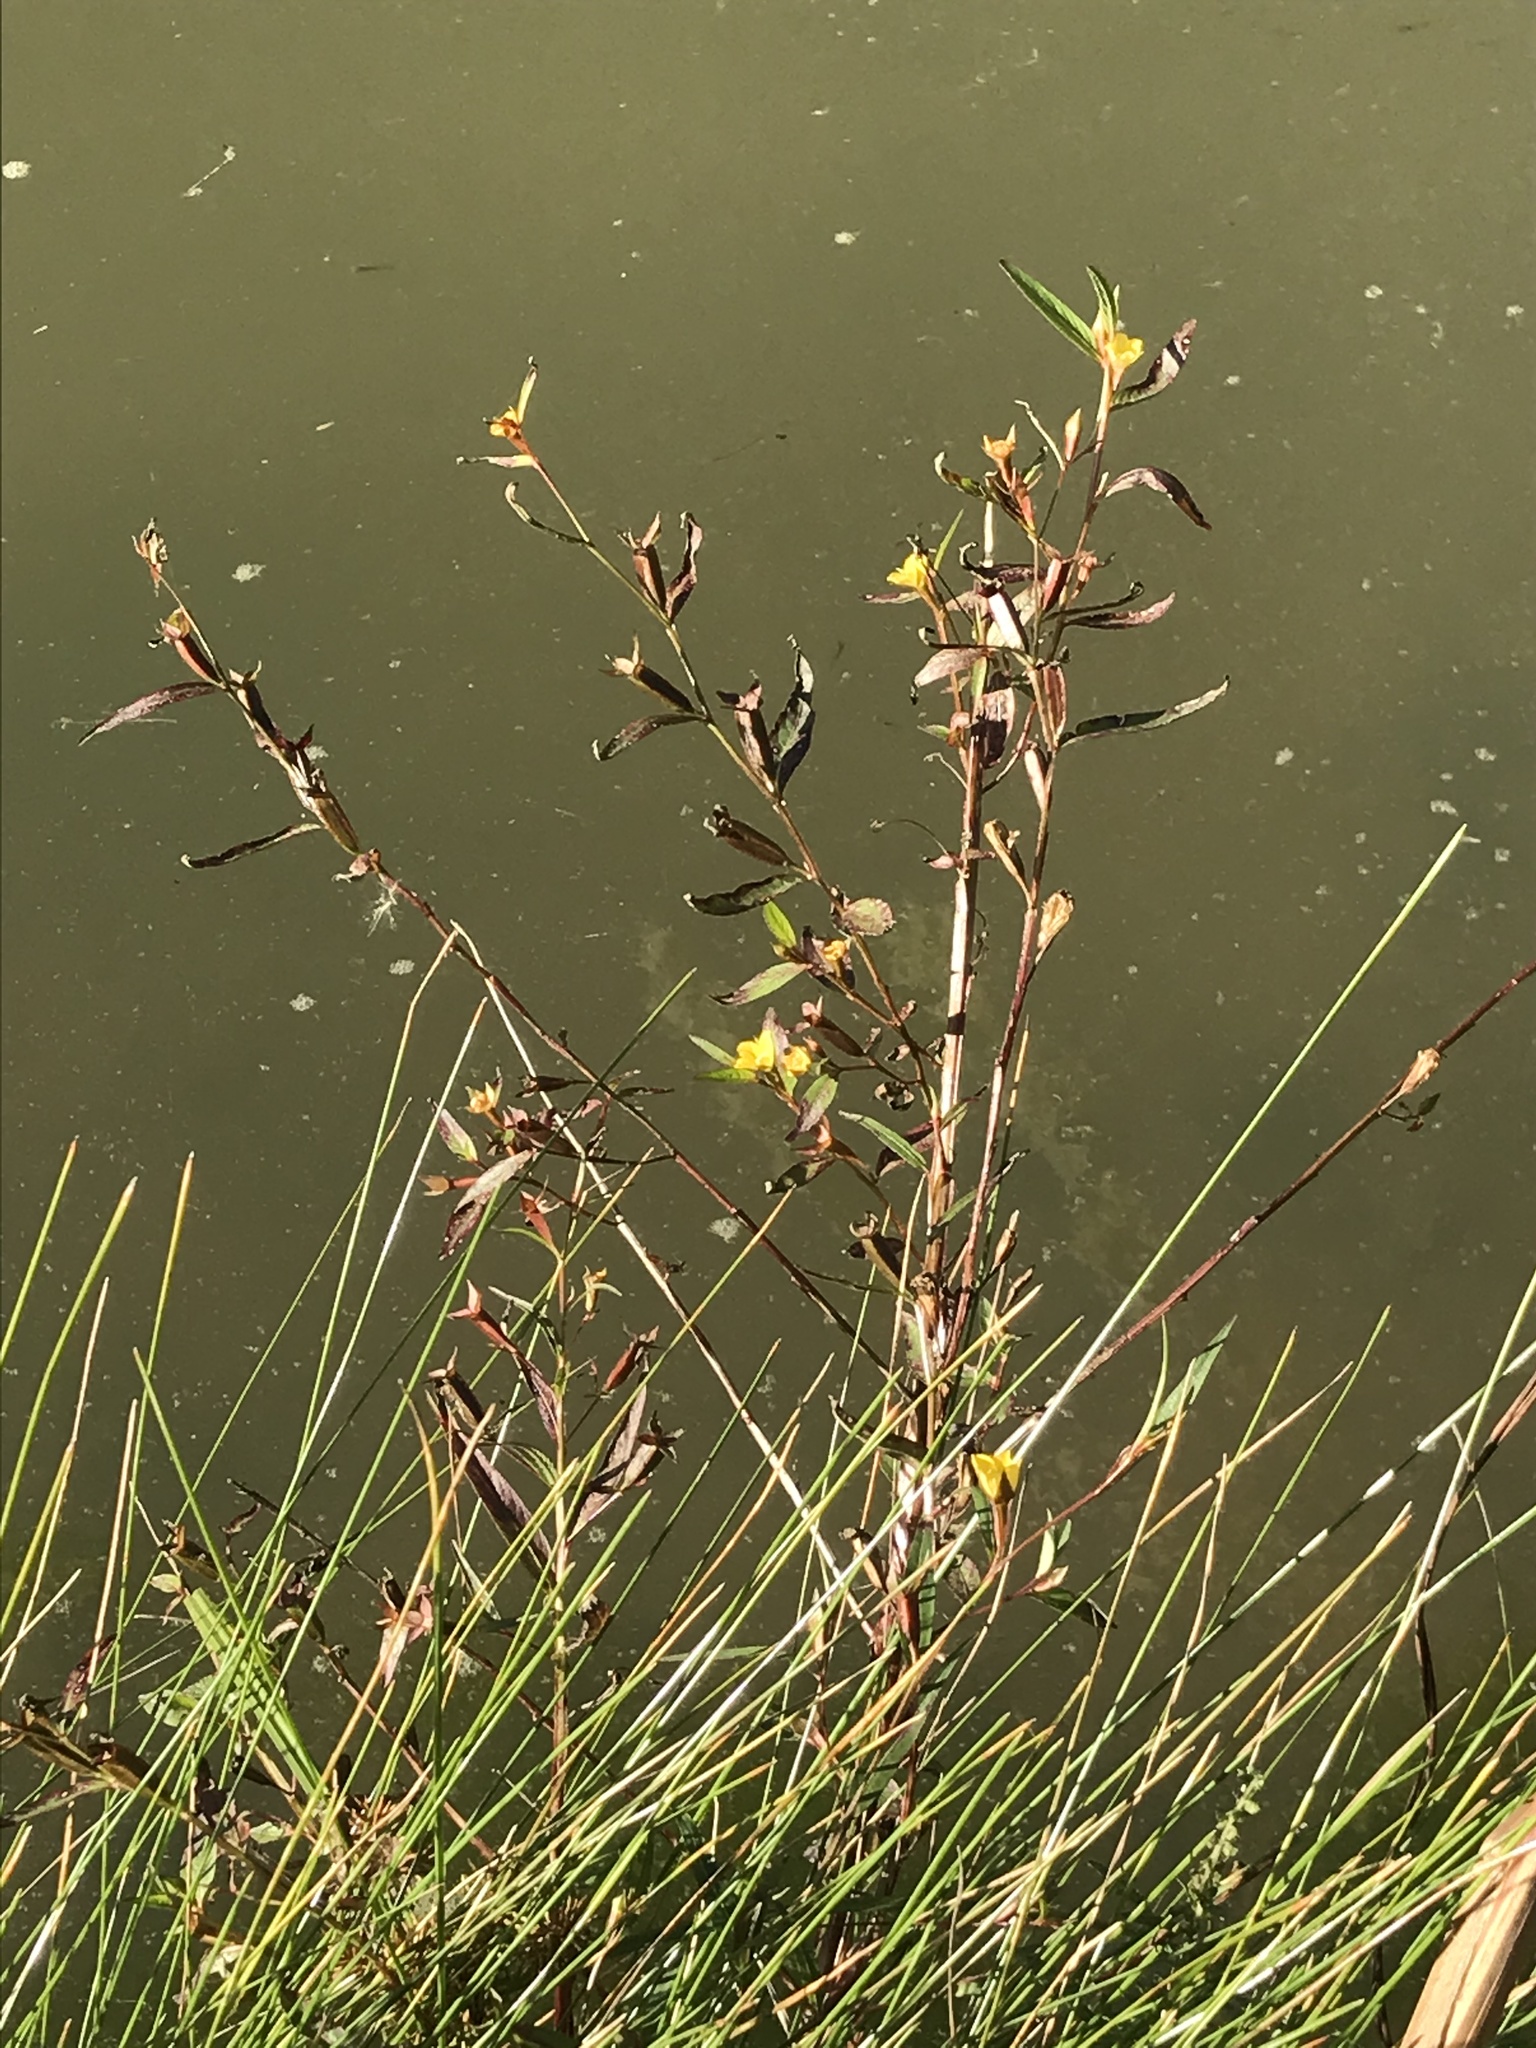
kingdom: Plantae
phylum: Tracheophyta
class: Magnoliopsida
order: Myrtales
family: Onagraceae
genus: Ludwigia
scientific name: Ludwigia decurrens
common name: Winged water-primrose
